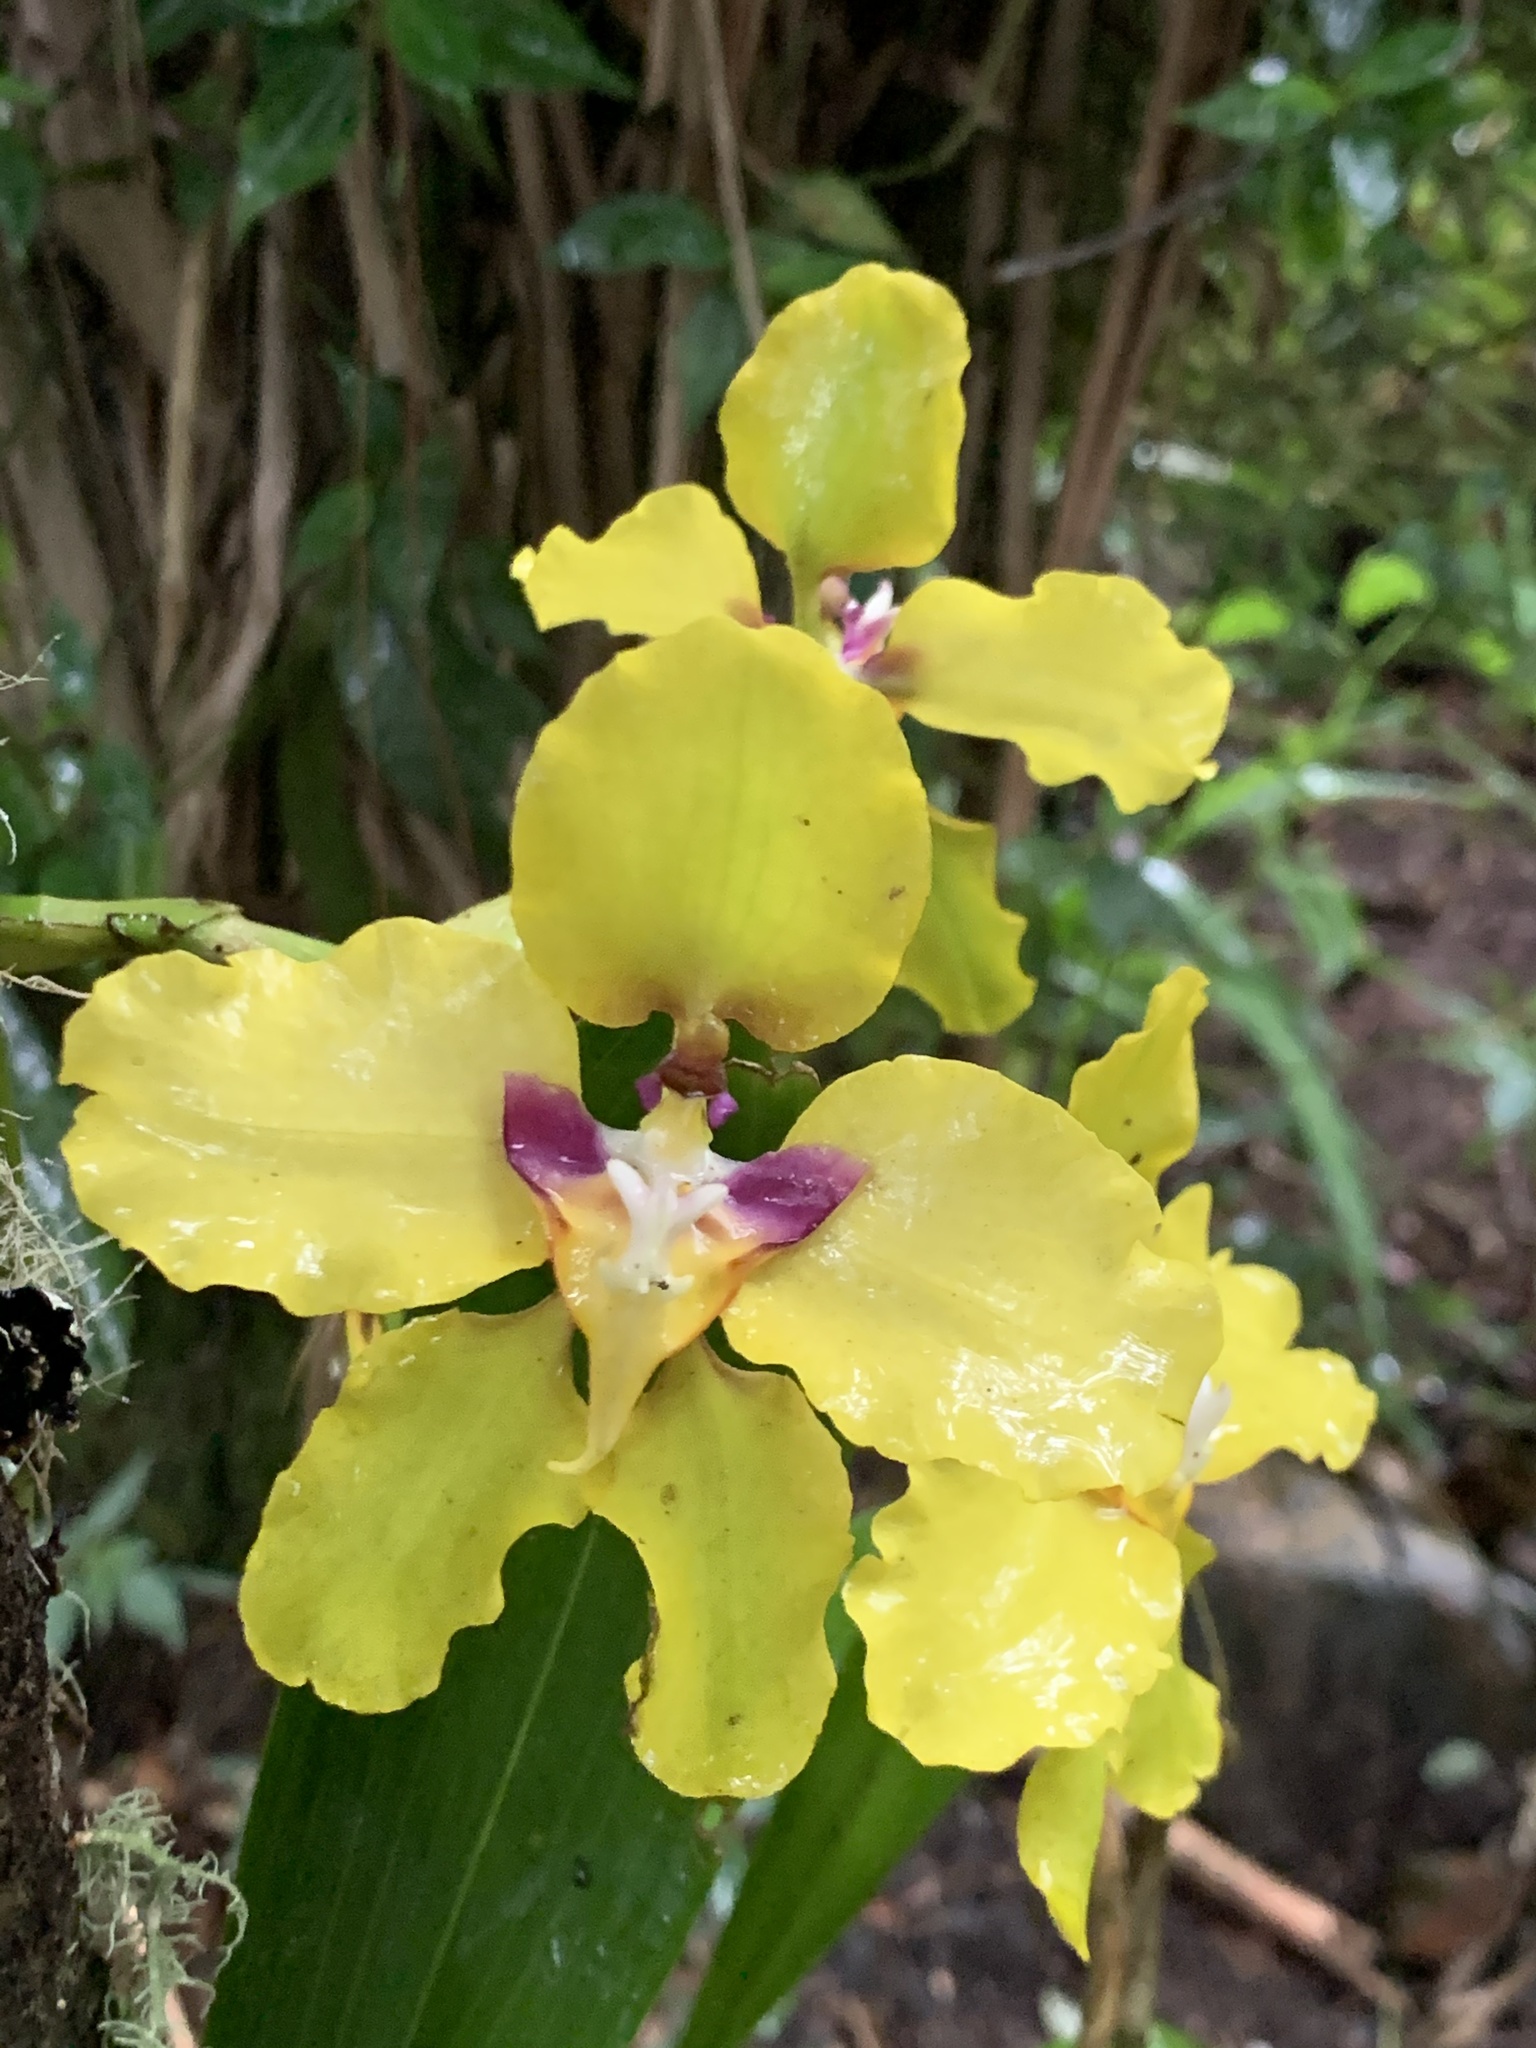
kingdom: Plantae
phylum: Tracheophyta
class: Liliopsida
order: Asparagales
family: Orchidaceae
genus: Cyrtochilum
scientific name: Cyrtochilum macranthum
